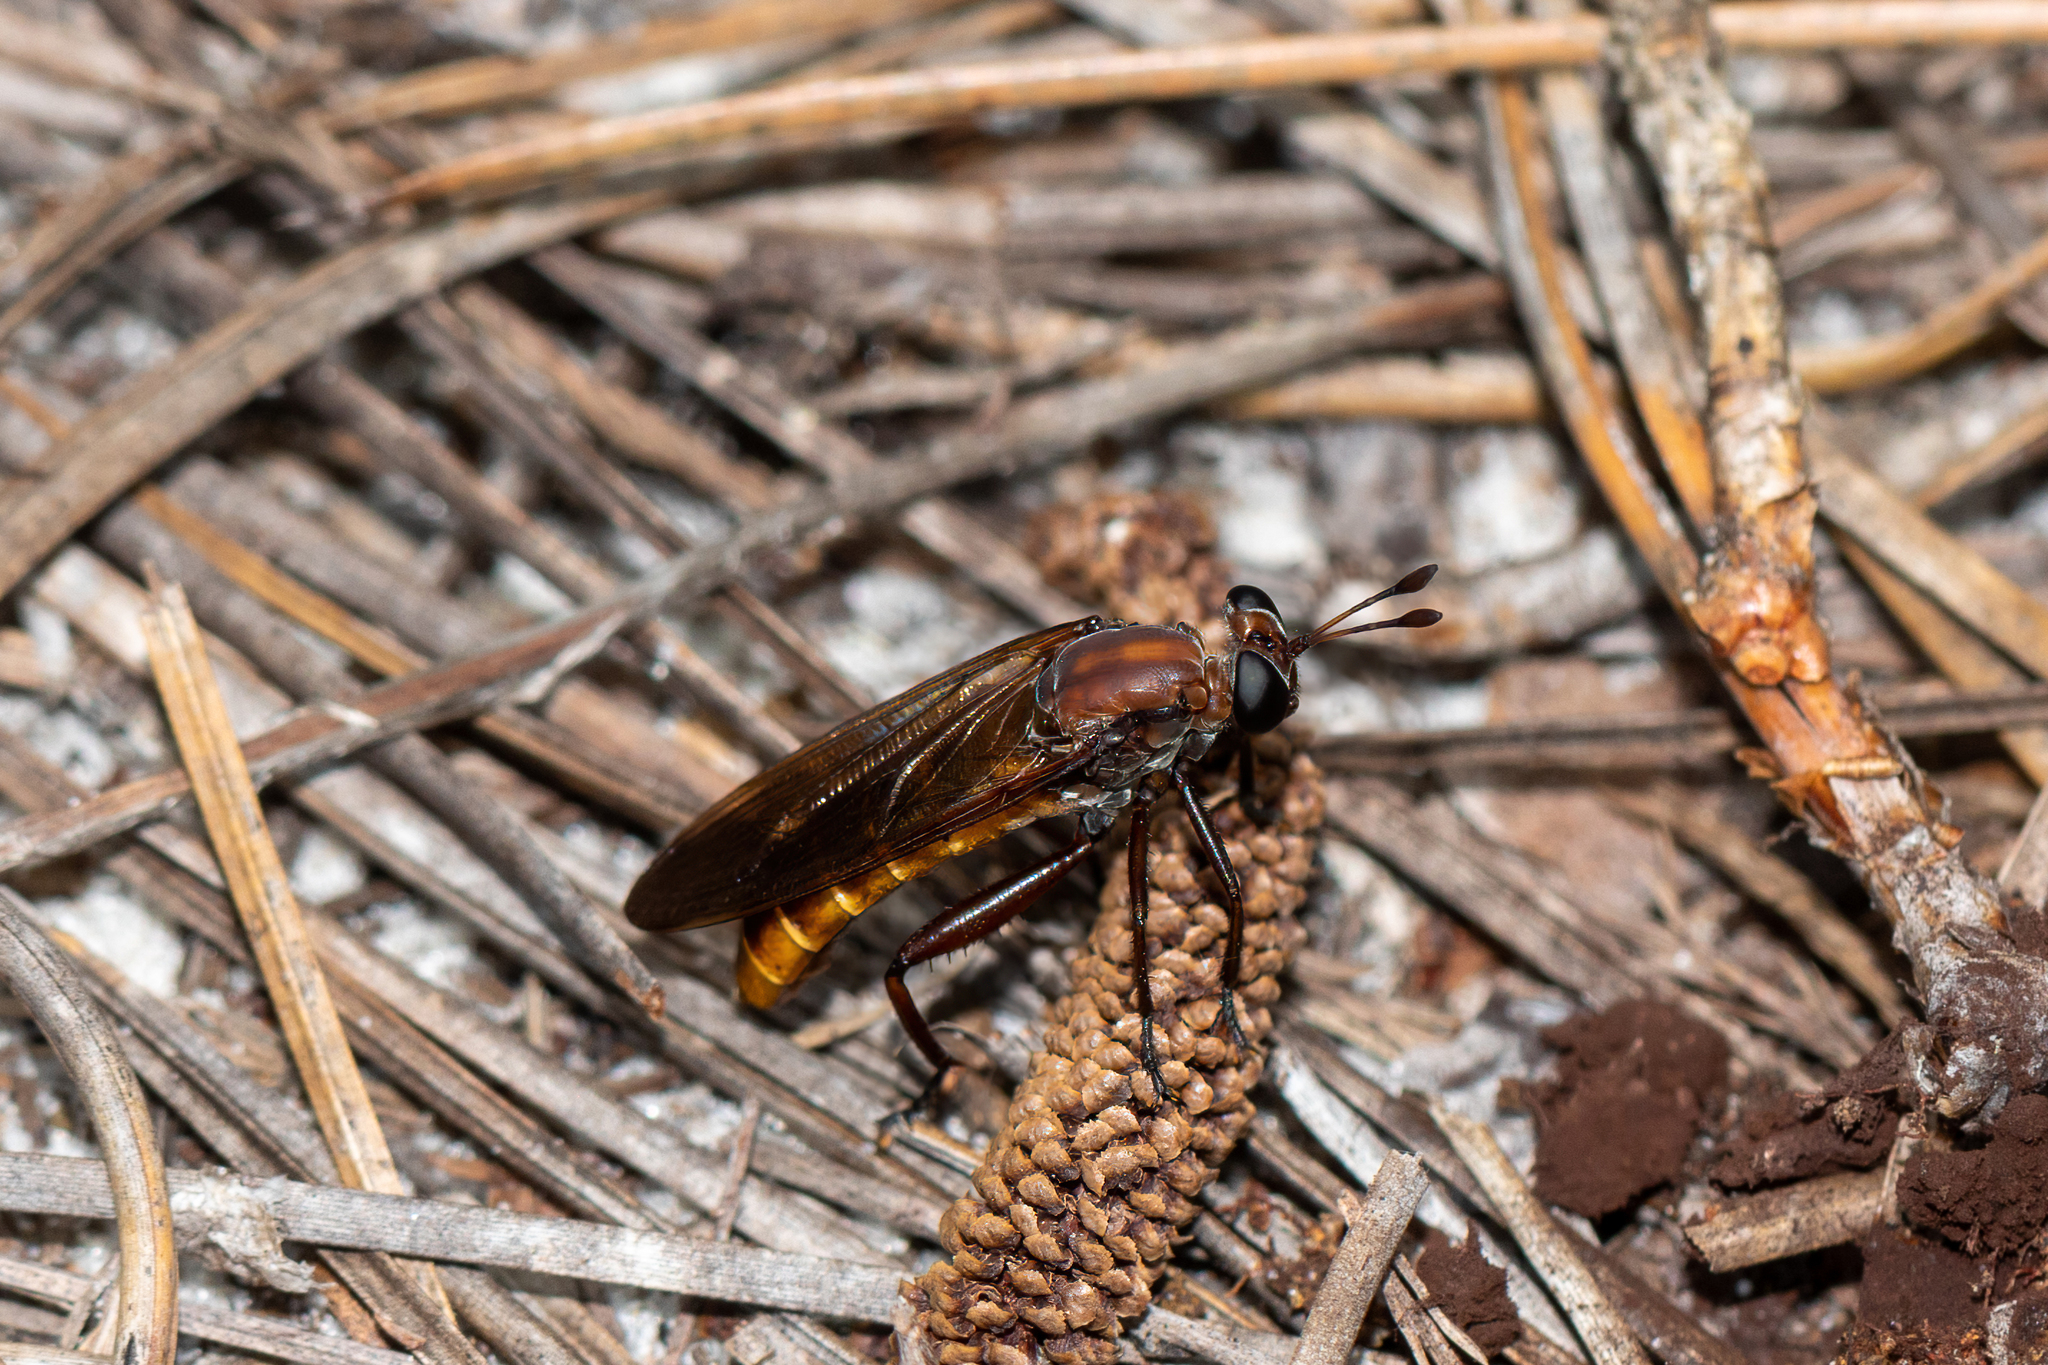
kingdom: Animalia
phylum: Arthropoda
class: Insecta
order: Diptera
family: Mydidae
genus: Mydas
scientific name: Mydas maculiventris
